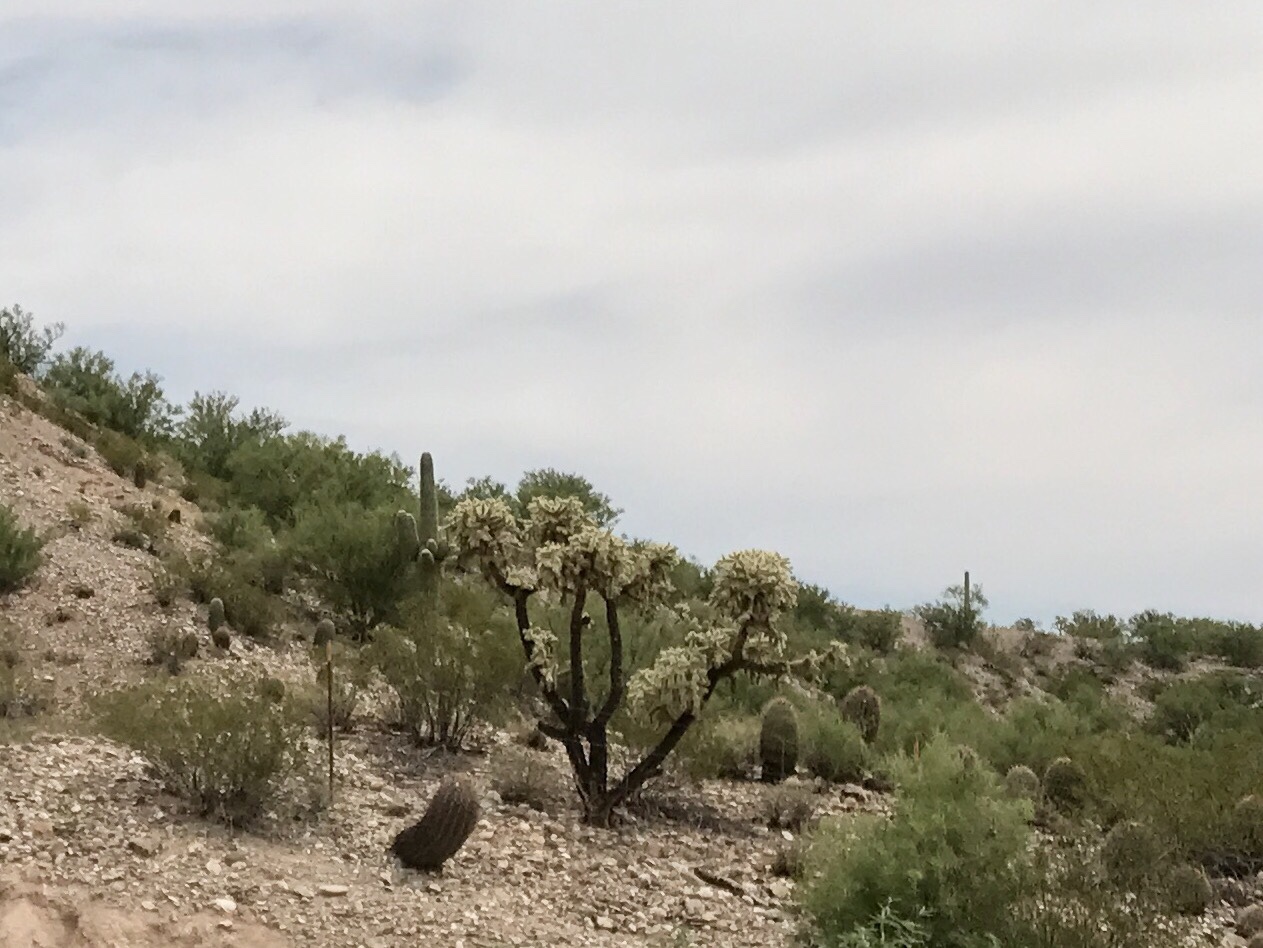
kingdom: Plantae
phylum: Tracheophyta
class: Magnoliopsida
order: Caryophyllales
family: Cactaceae
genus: Cylindropuntia
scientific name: Cylindropuntia fulgida
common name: Jumping cholla
